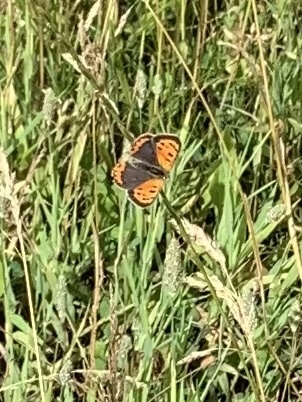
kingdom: Animalia
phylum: Arthropoda
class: Insecta
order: Lepidoptera
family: Lycaenidae
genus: Lycaena
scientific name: Lycaena phlaeas
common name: Small copper
